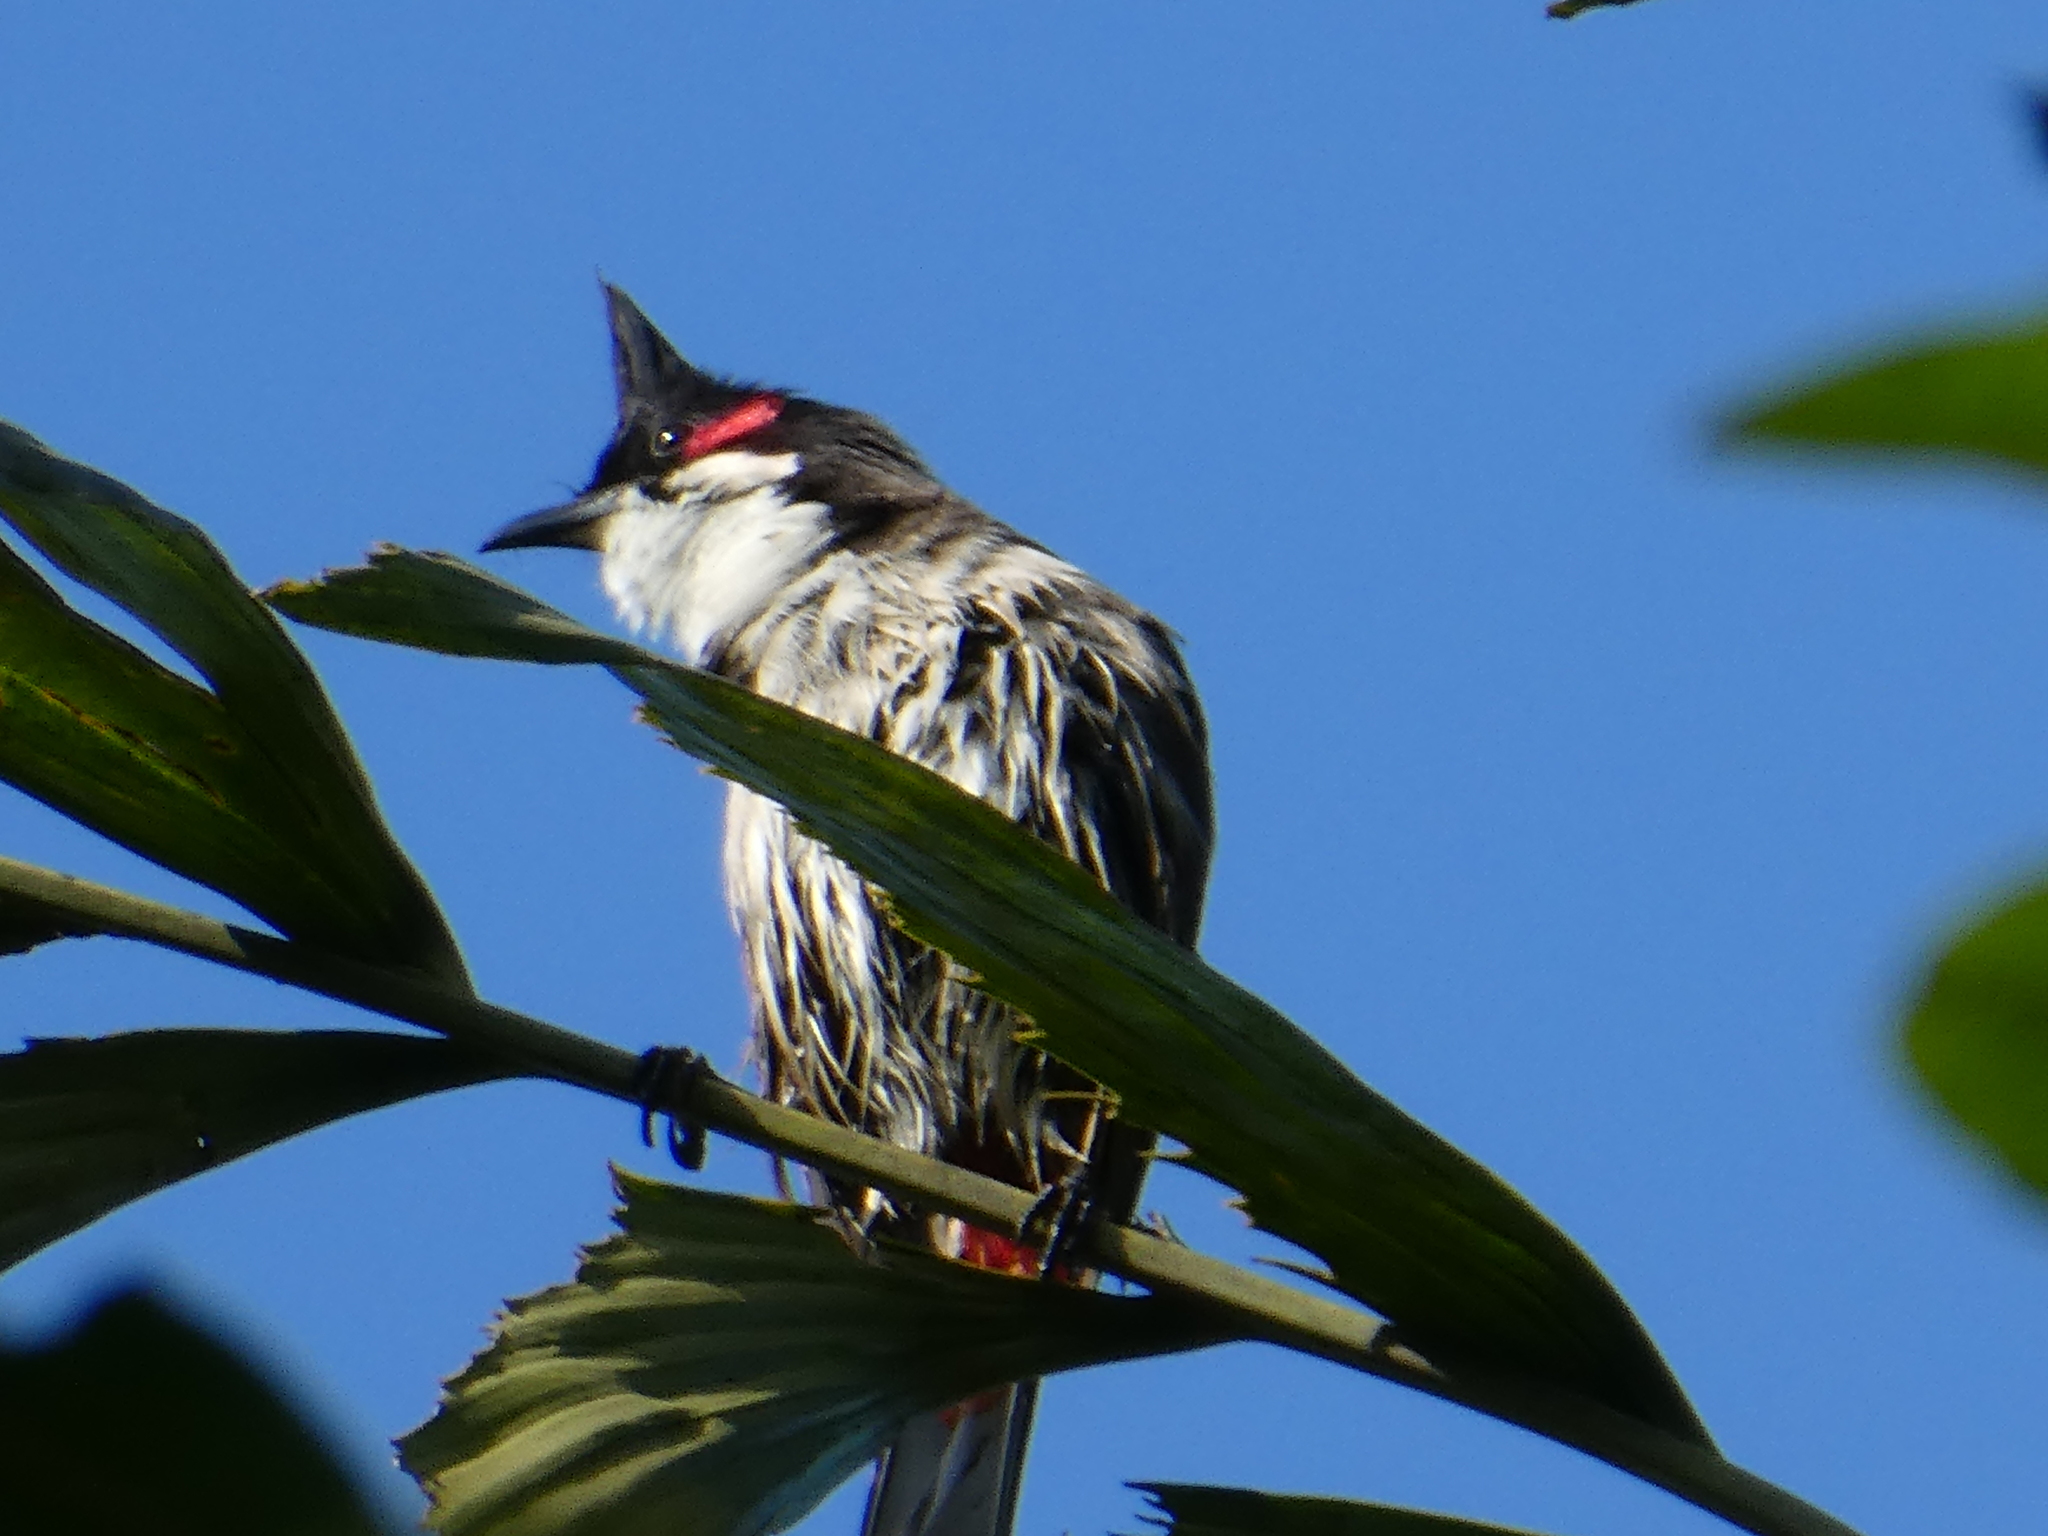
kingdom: Animalia
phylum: Chordata
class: Aves
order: Passeriformes
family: Pycnonotidae
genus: Pycnonotus
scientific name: Pycnonotus jocosus
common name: Red-whiskered bulbul
